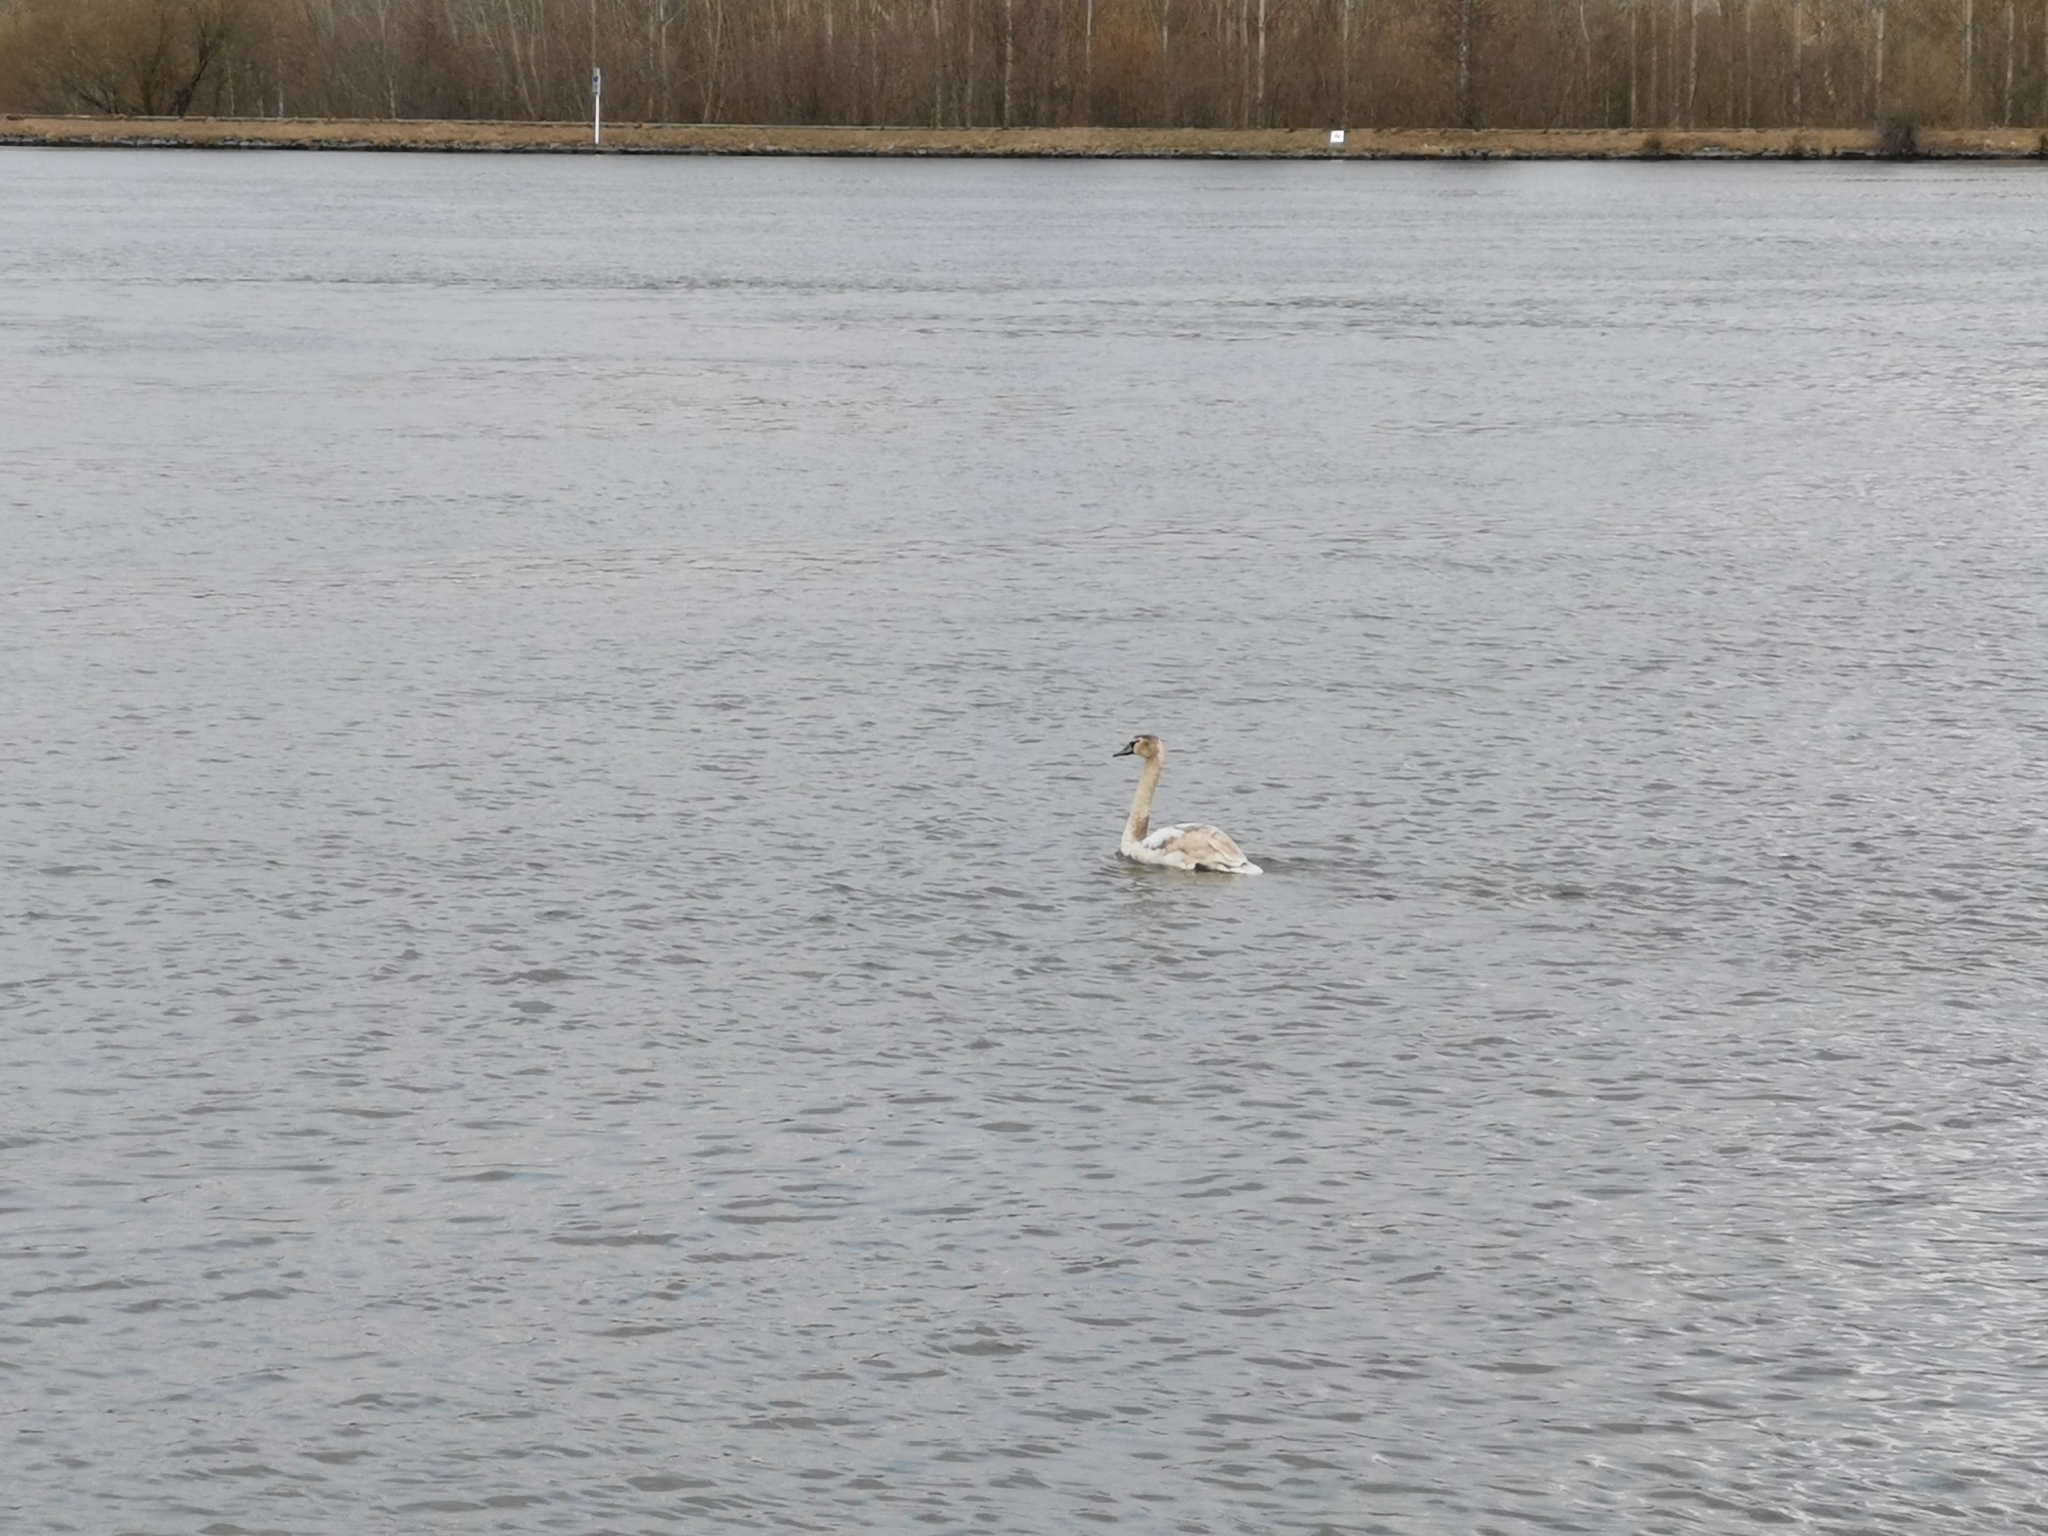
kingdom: Animalia
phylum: Chordata
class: Aves
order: Anseriformes
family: Anatidae
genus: Cygnus
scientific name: Cygnus olor
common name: Mute swan
